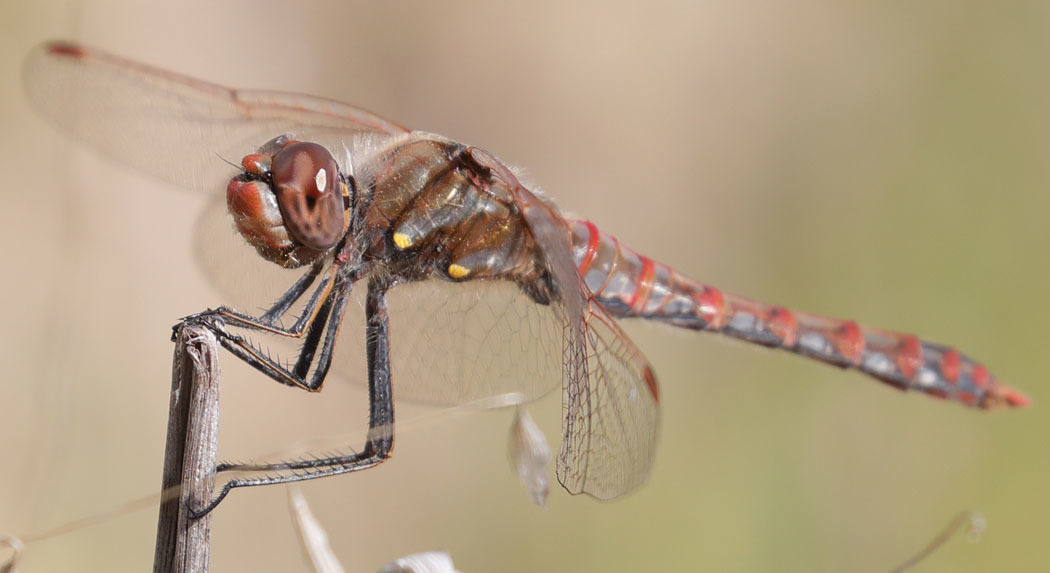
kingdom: Animalia
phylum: Arthropoda
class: Insecta
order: Odonata
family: Libellulidae
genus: Sympetrum
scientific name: Sympetrum corruptum
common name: Variegated meadowhawk
